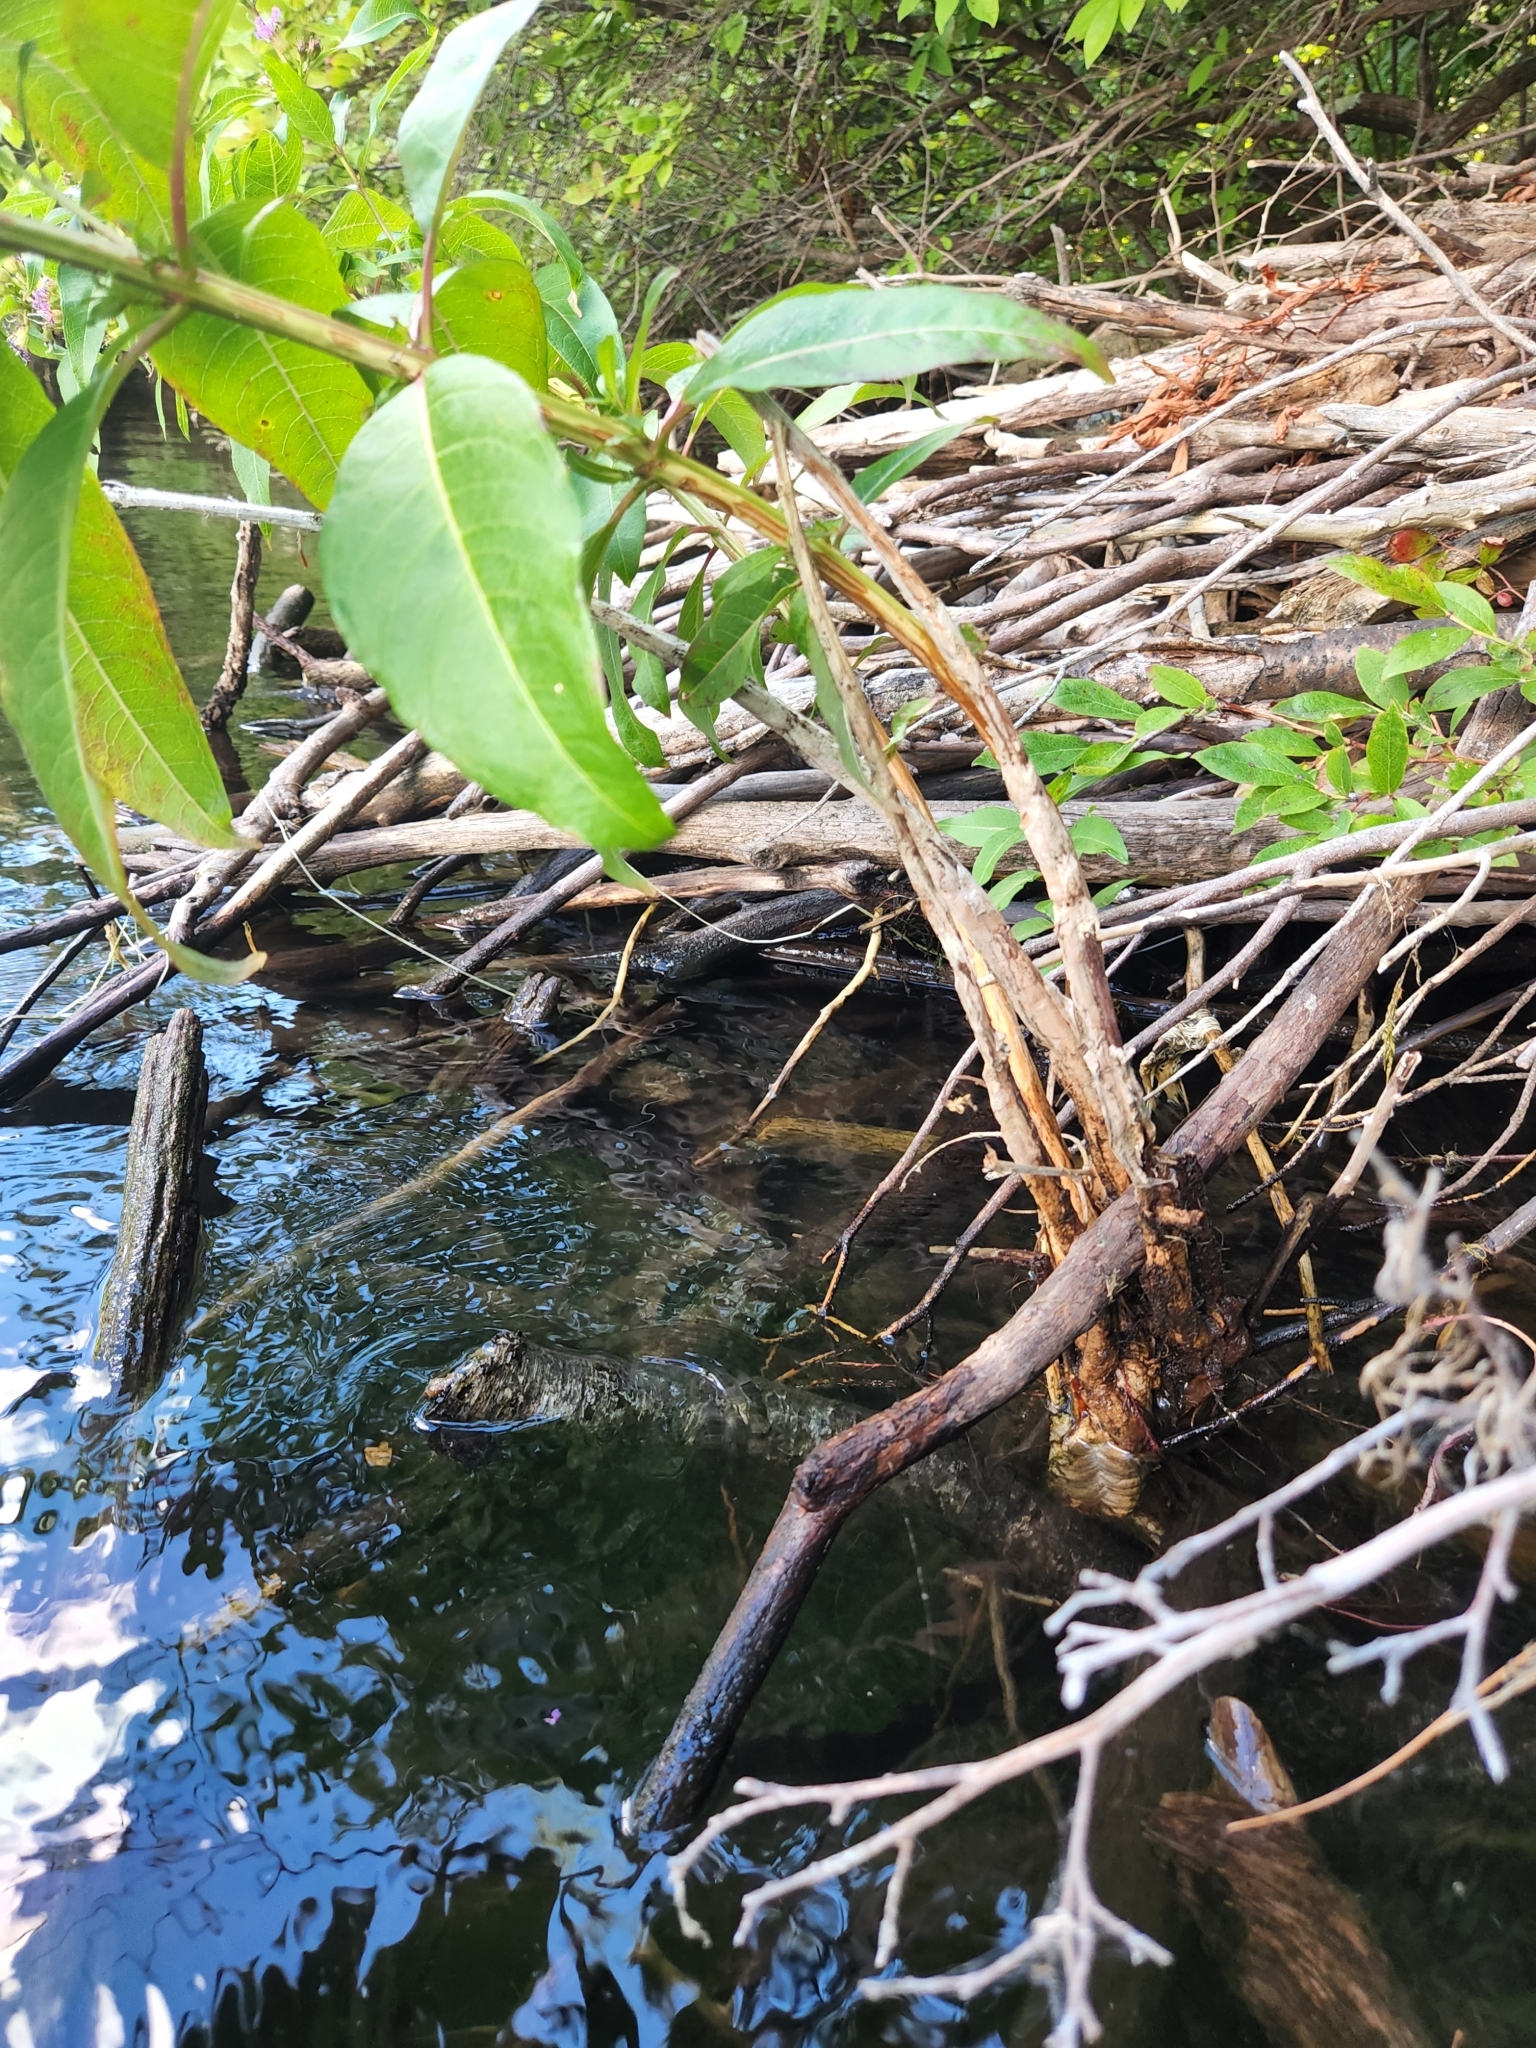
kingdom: Plantae
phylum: Tracheophyta
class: Magnoliopsida
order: Myrtales
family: Lythraceae
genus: Decodon
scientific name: Decodon verticillatus
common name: Hairy swamp loosestrife
